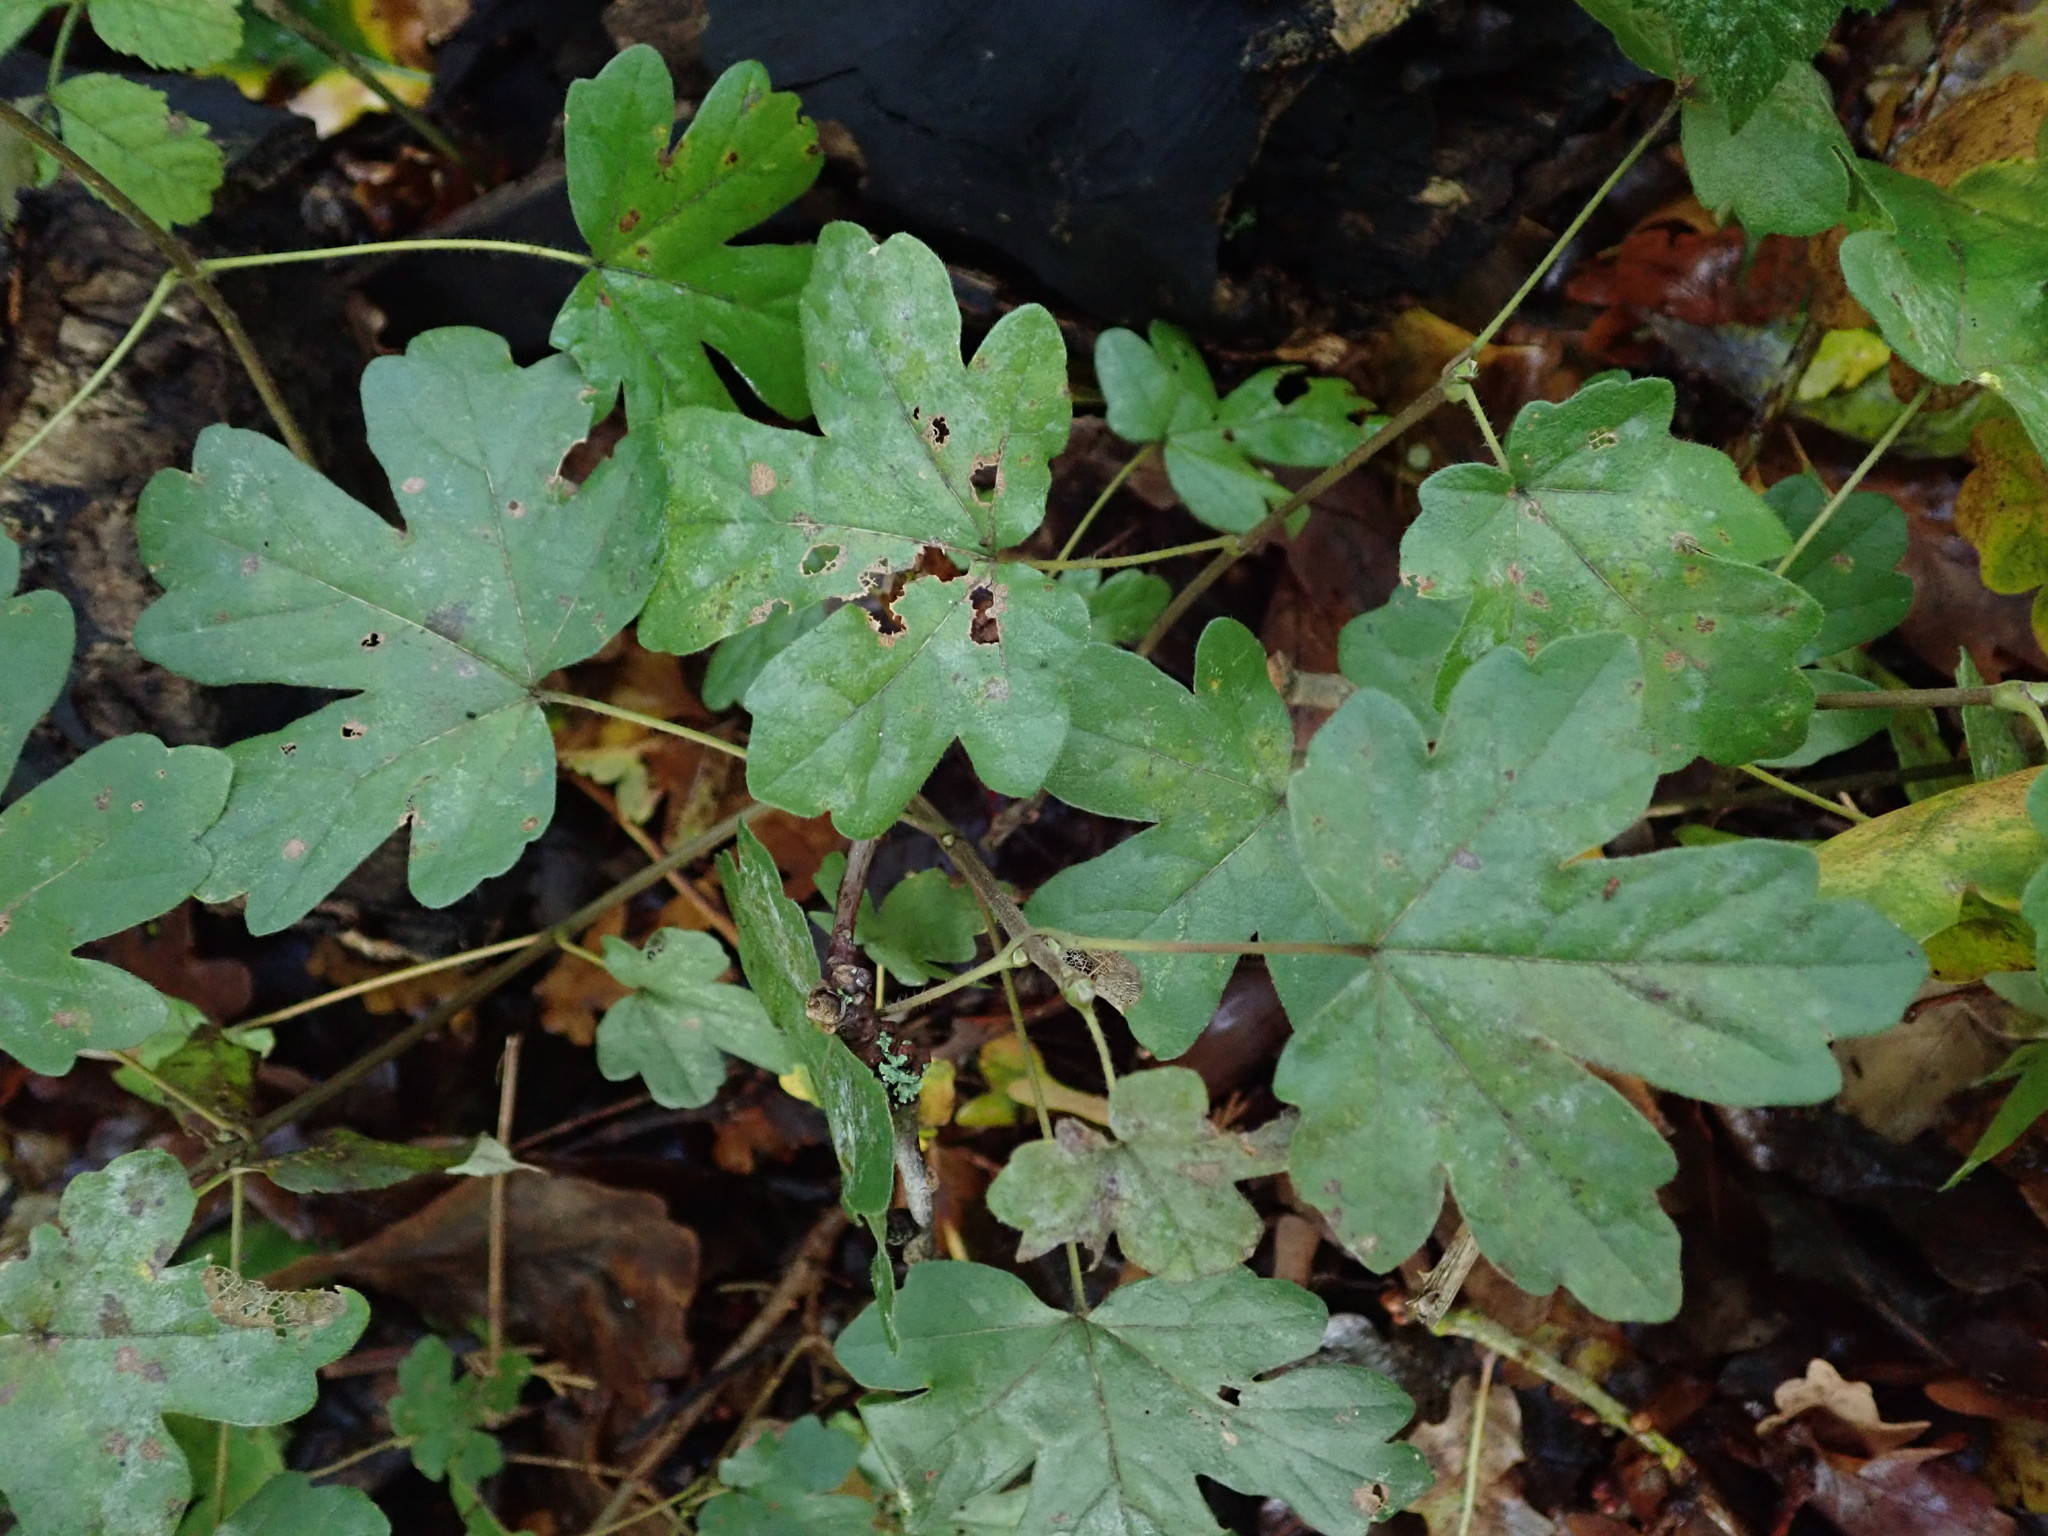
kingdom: Plantae
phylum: Tracheophyta
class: Magnoliopsida
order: Sapindales
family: Sapindaceae
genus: Acer
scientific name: Acer campestre
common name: Field maple
